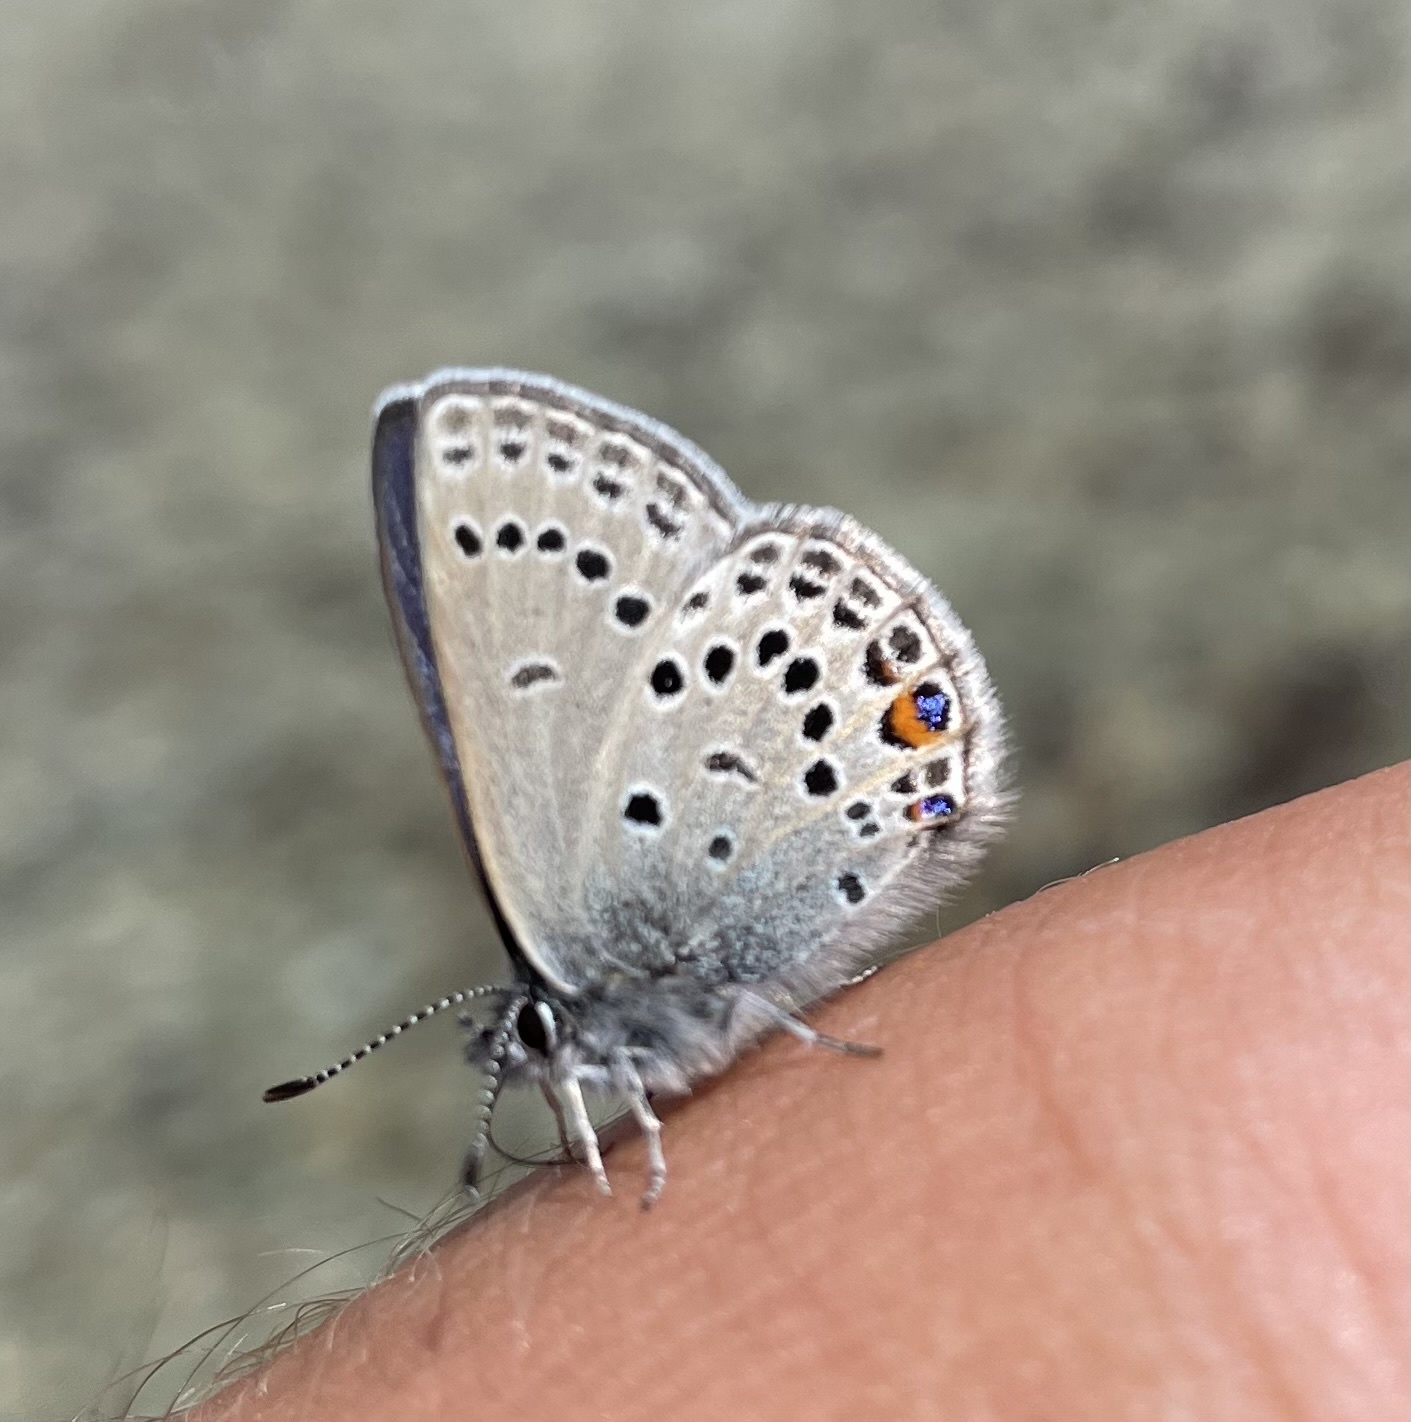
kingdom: Animalia
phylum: Arthropoda
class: Insecta
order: Lepidoptera
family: Lycaenidae
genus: Vacciniina
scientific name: Vacciniina optilete
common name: Cranberry blue
